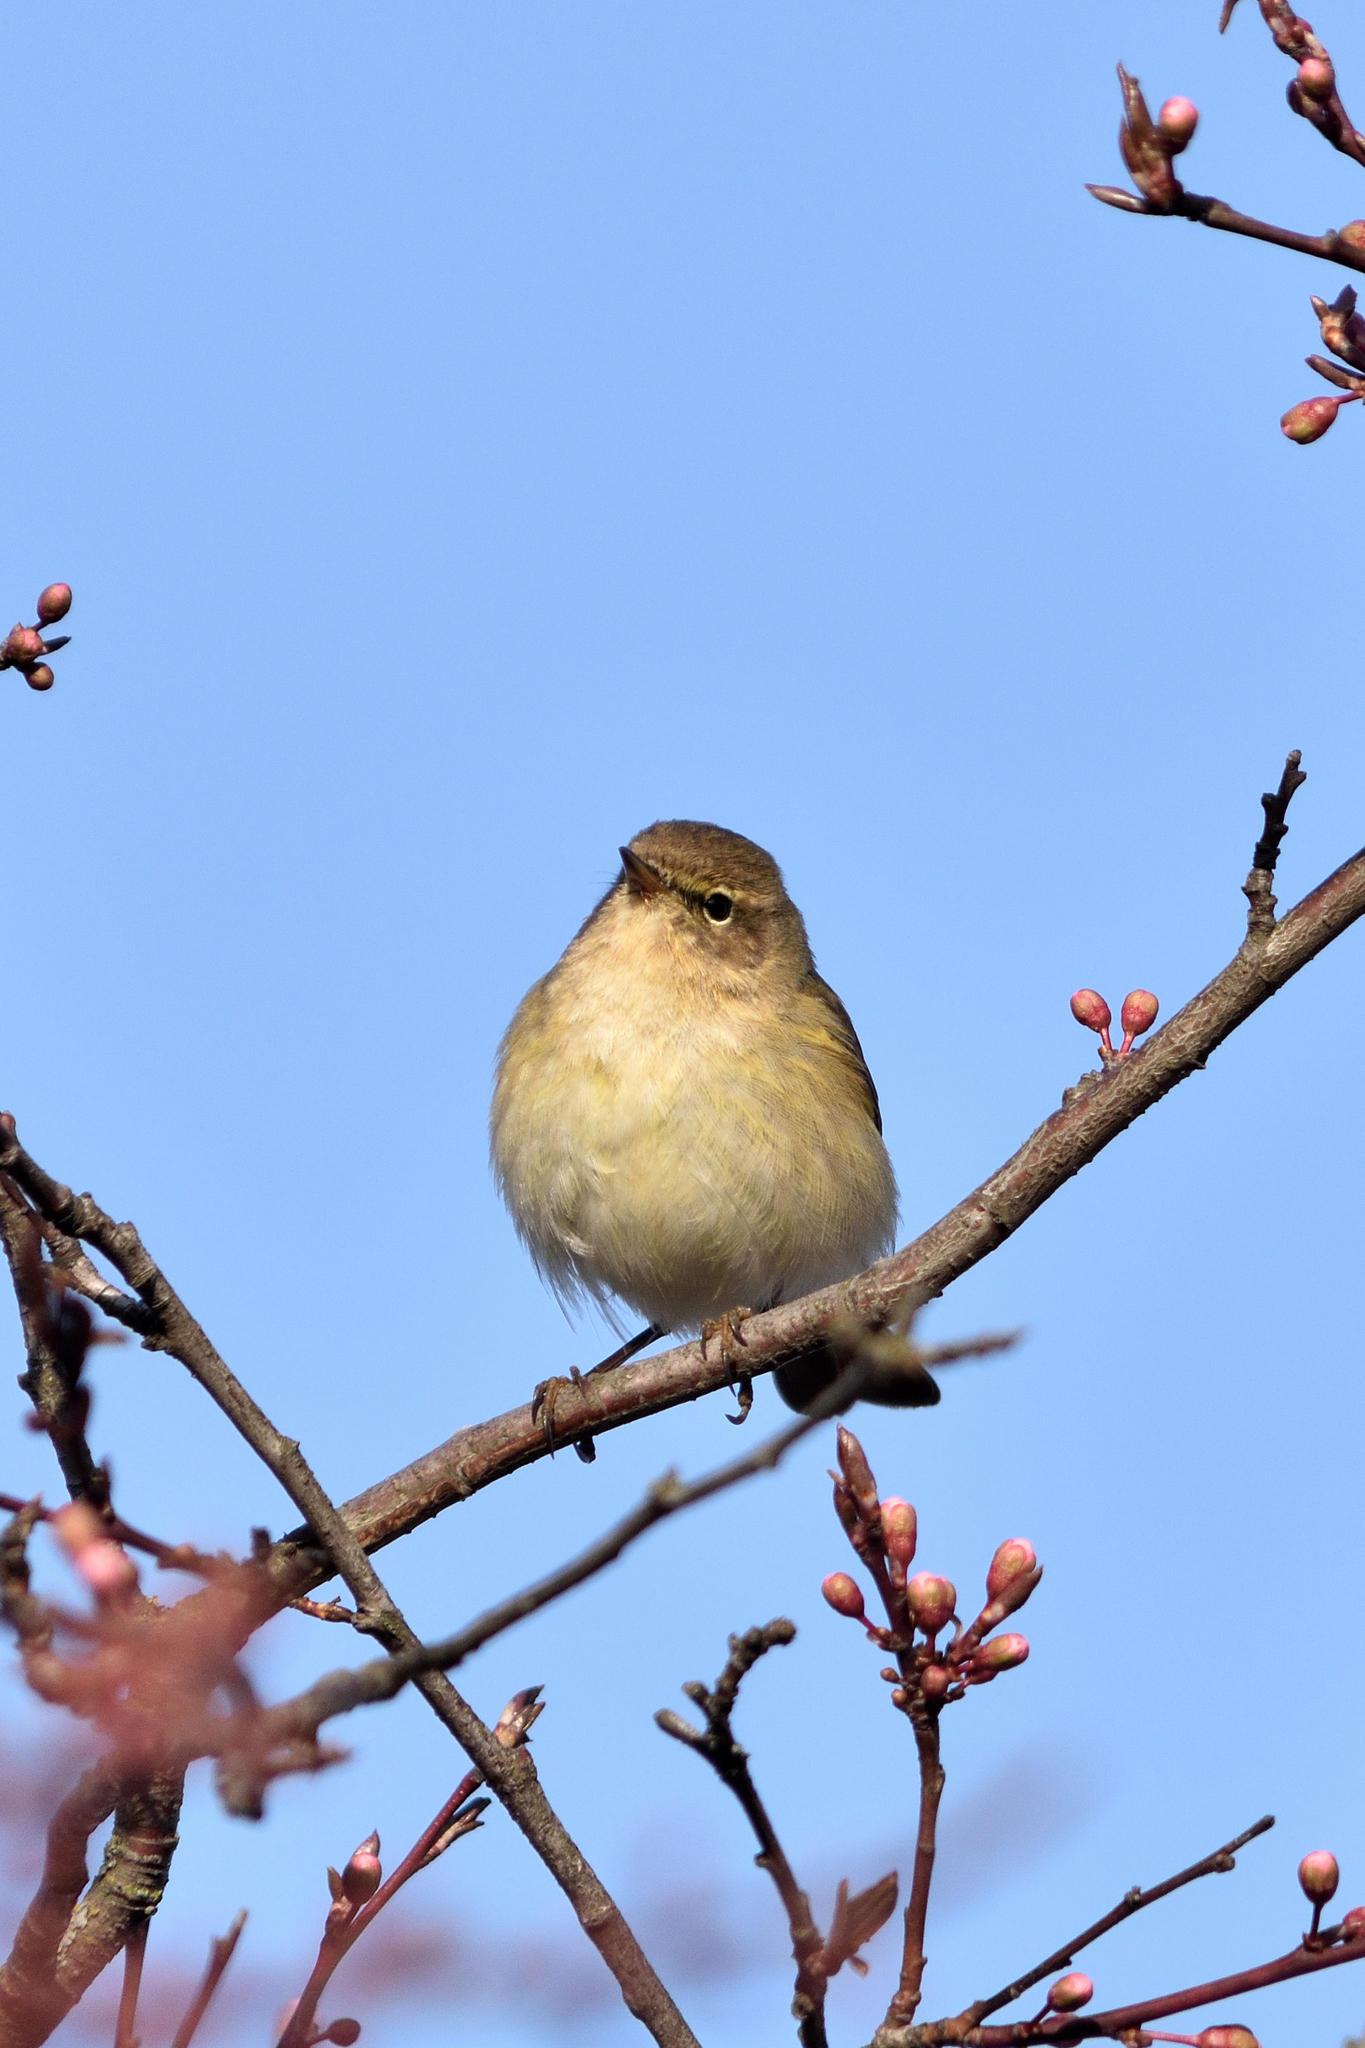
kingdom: Animalia
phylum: Chordata
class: Aves
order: Passeriformes
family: Phylloscopidae
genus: Phylloscopus
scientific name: Phylloscopus collybita
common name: Common chiffchaff
